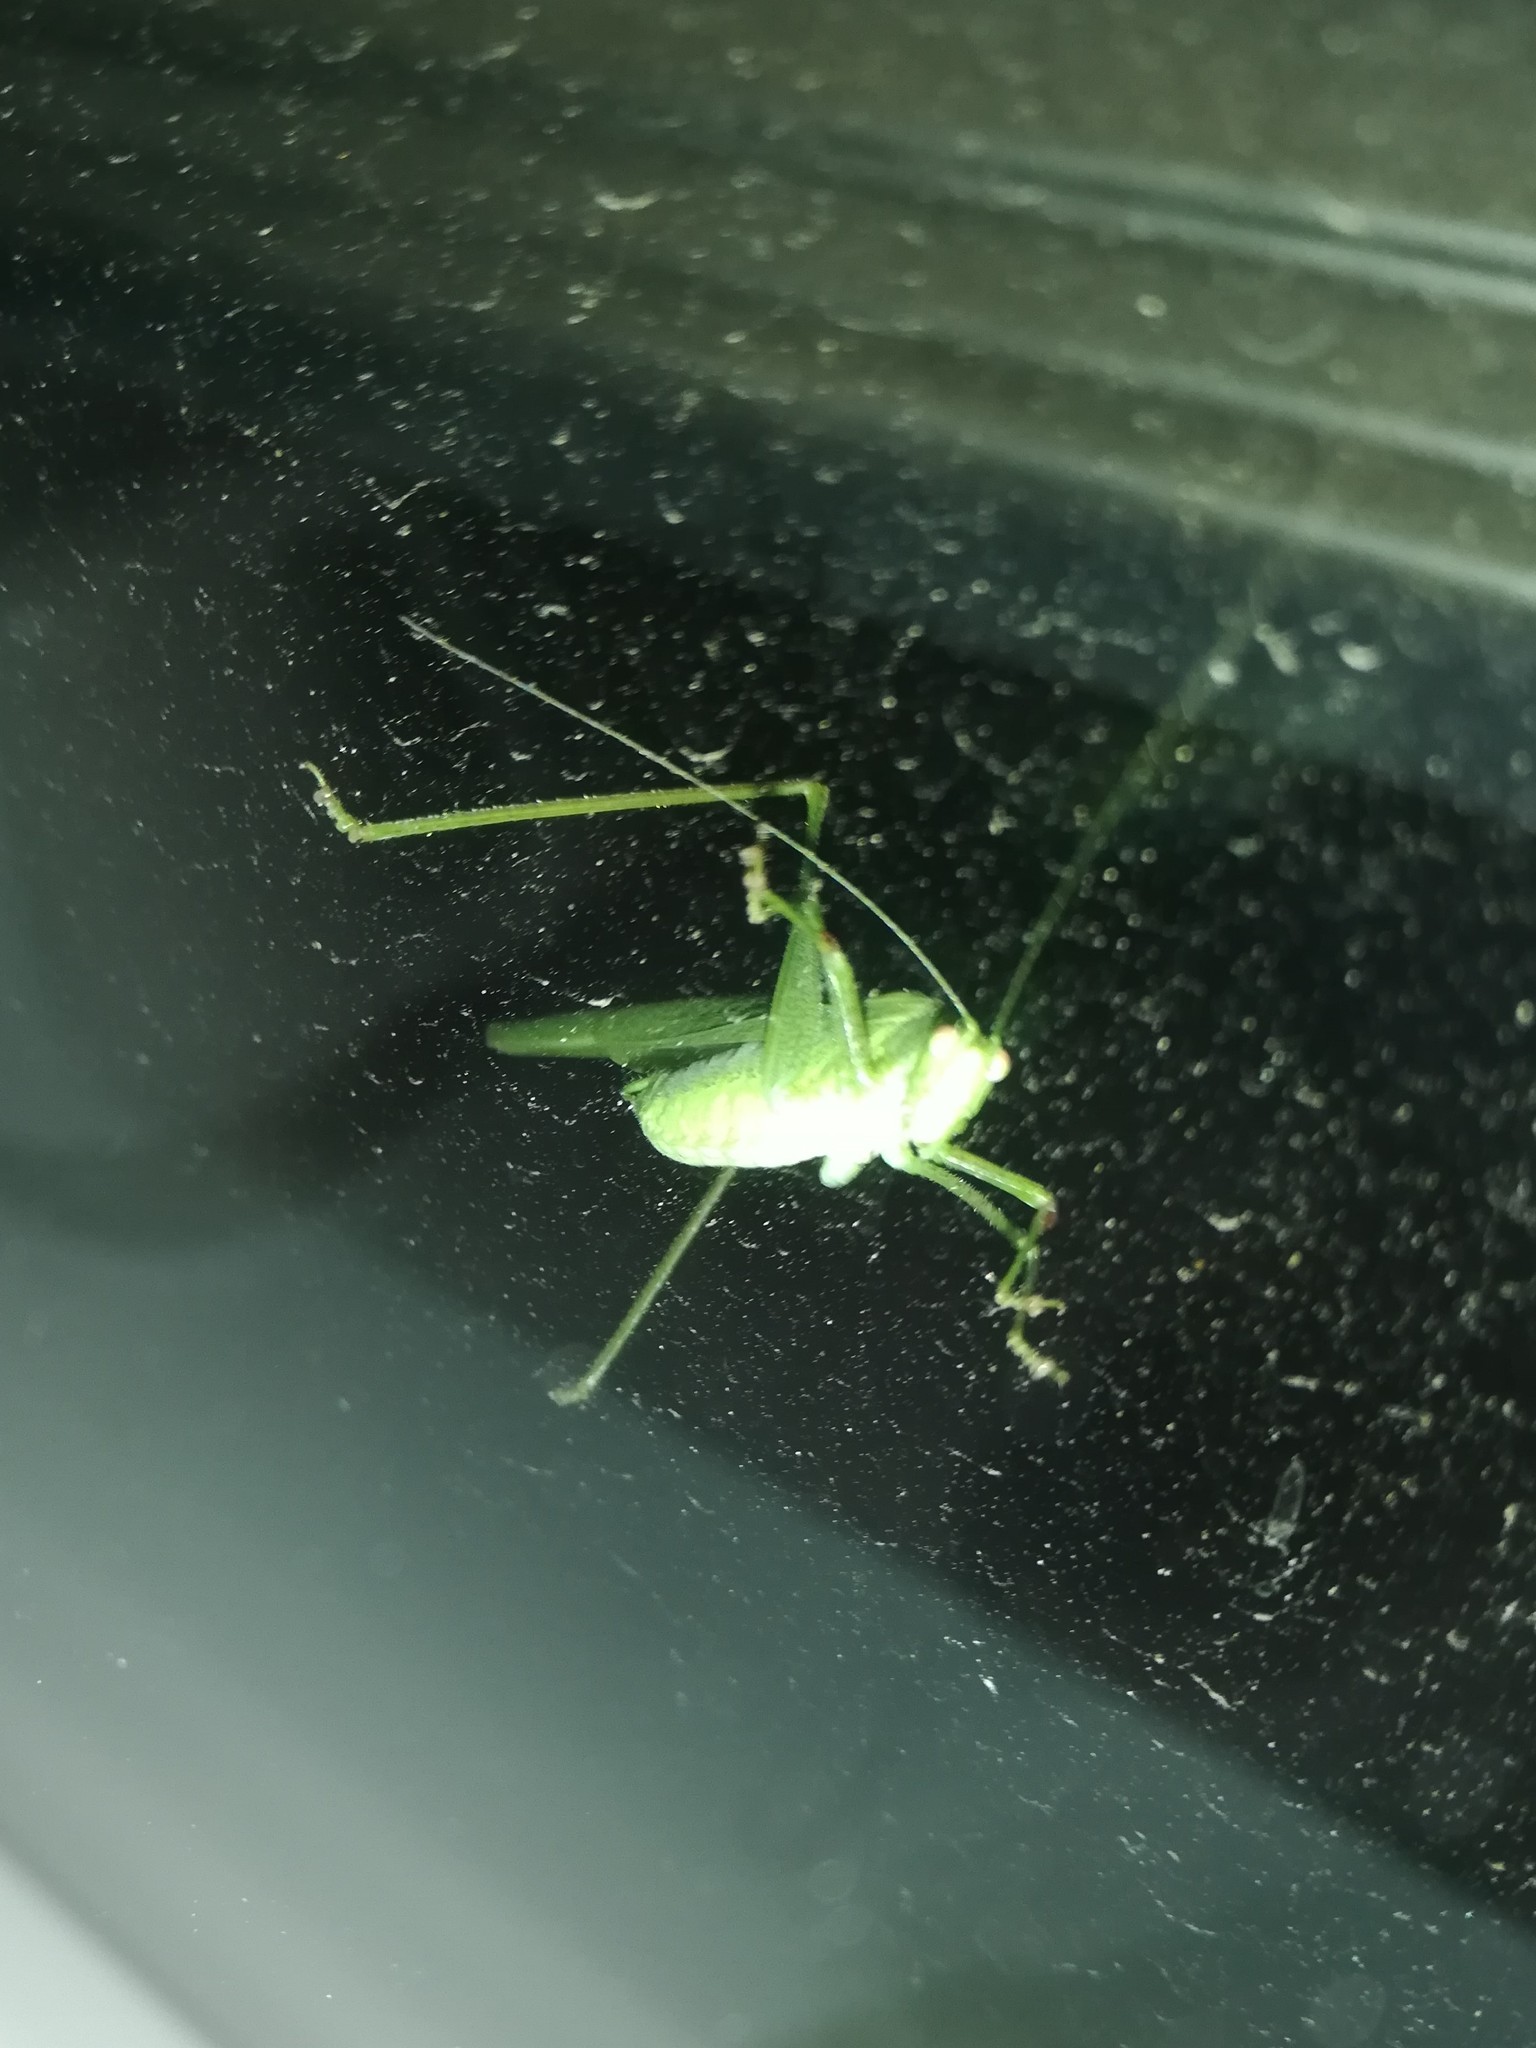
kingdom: Animalia
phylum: Arthropoda
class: Insecta
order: Orthoptera
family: Tettigoniidae
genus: Phaneroptera
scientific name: Phaneroptera nana
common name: Southern sickle bush-cricket
